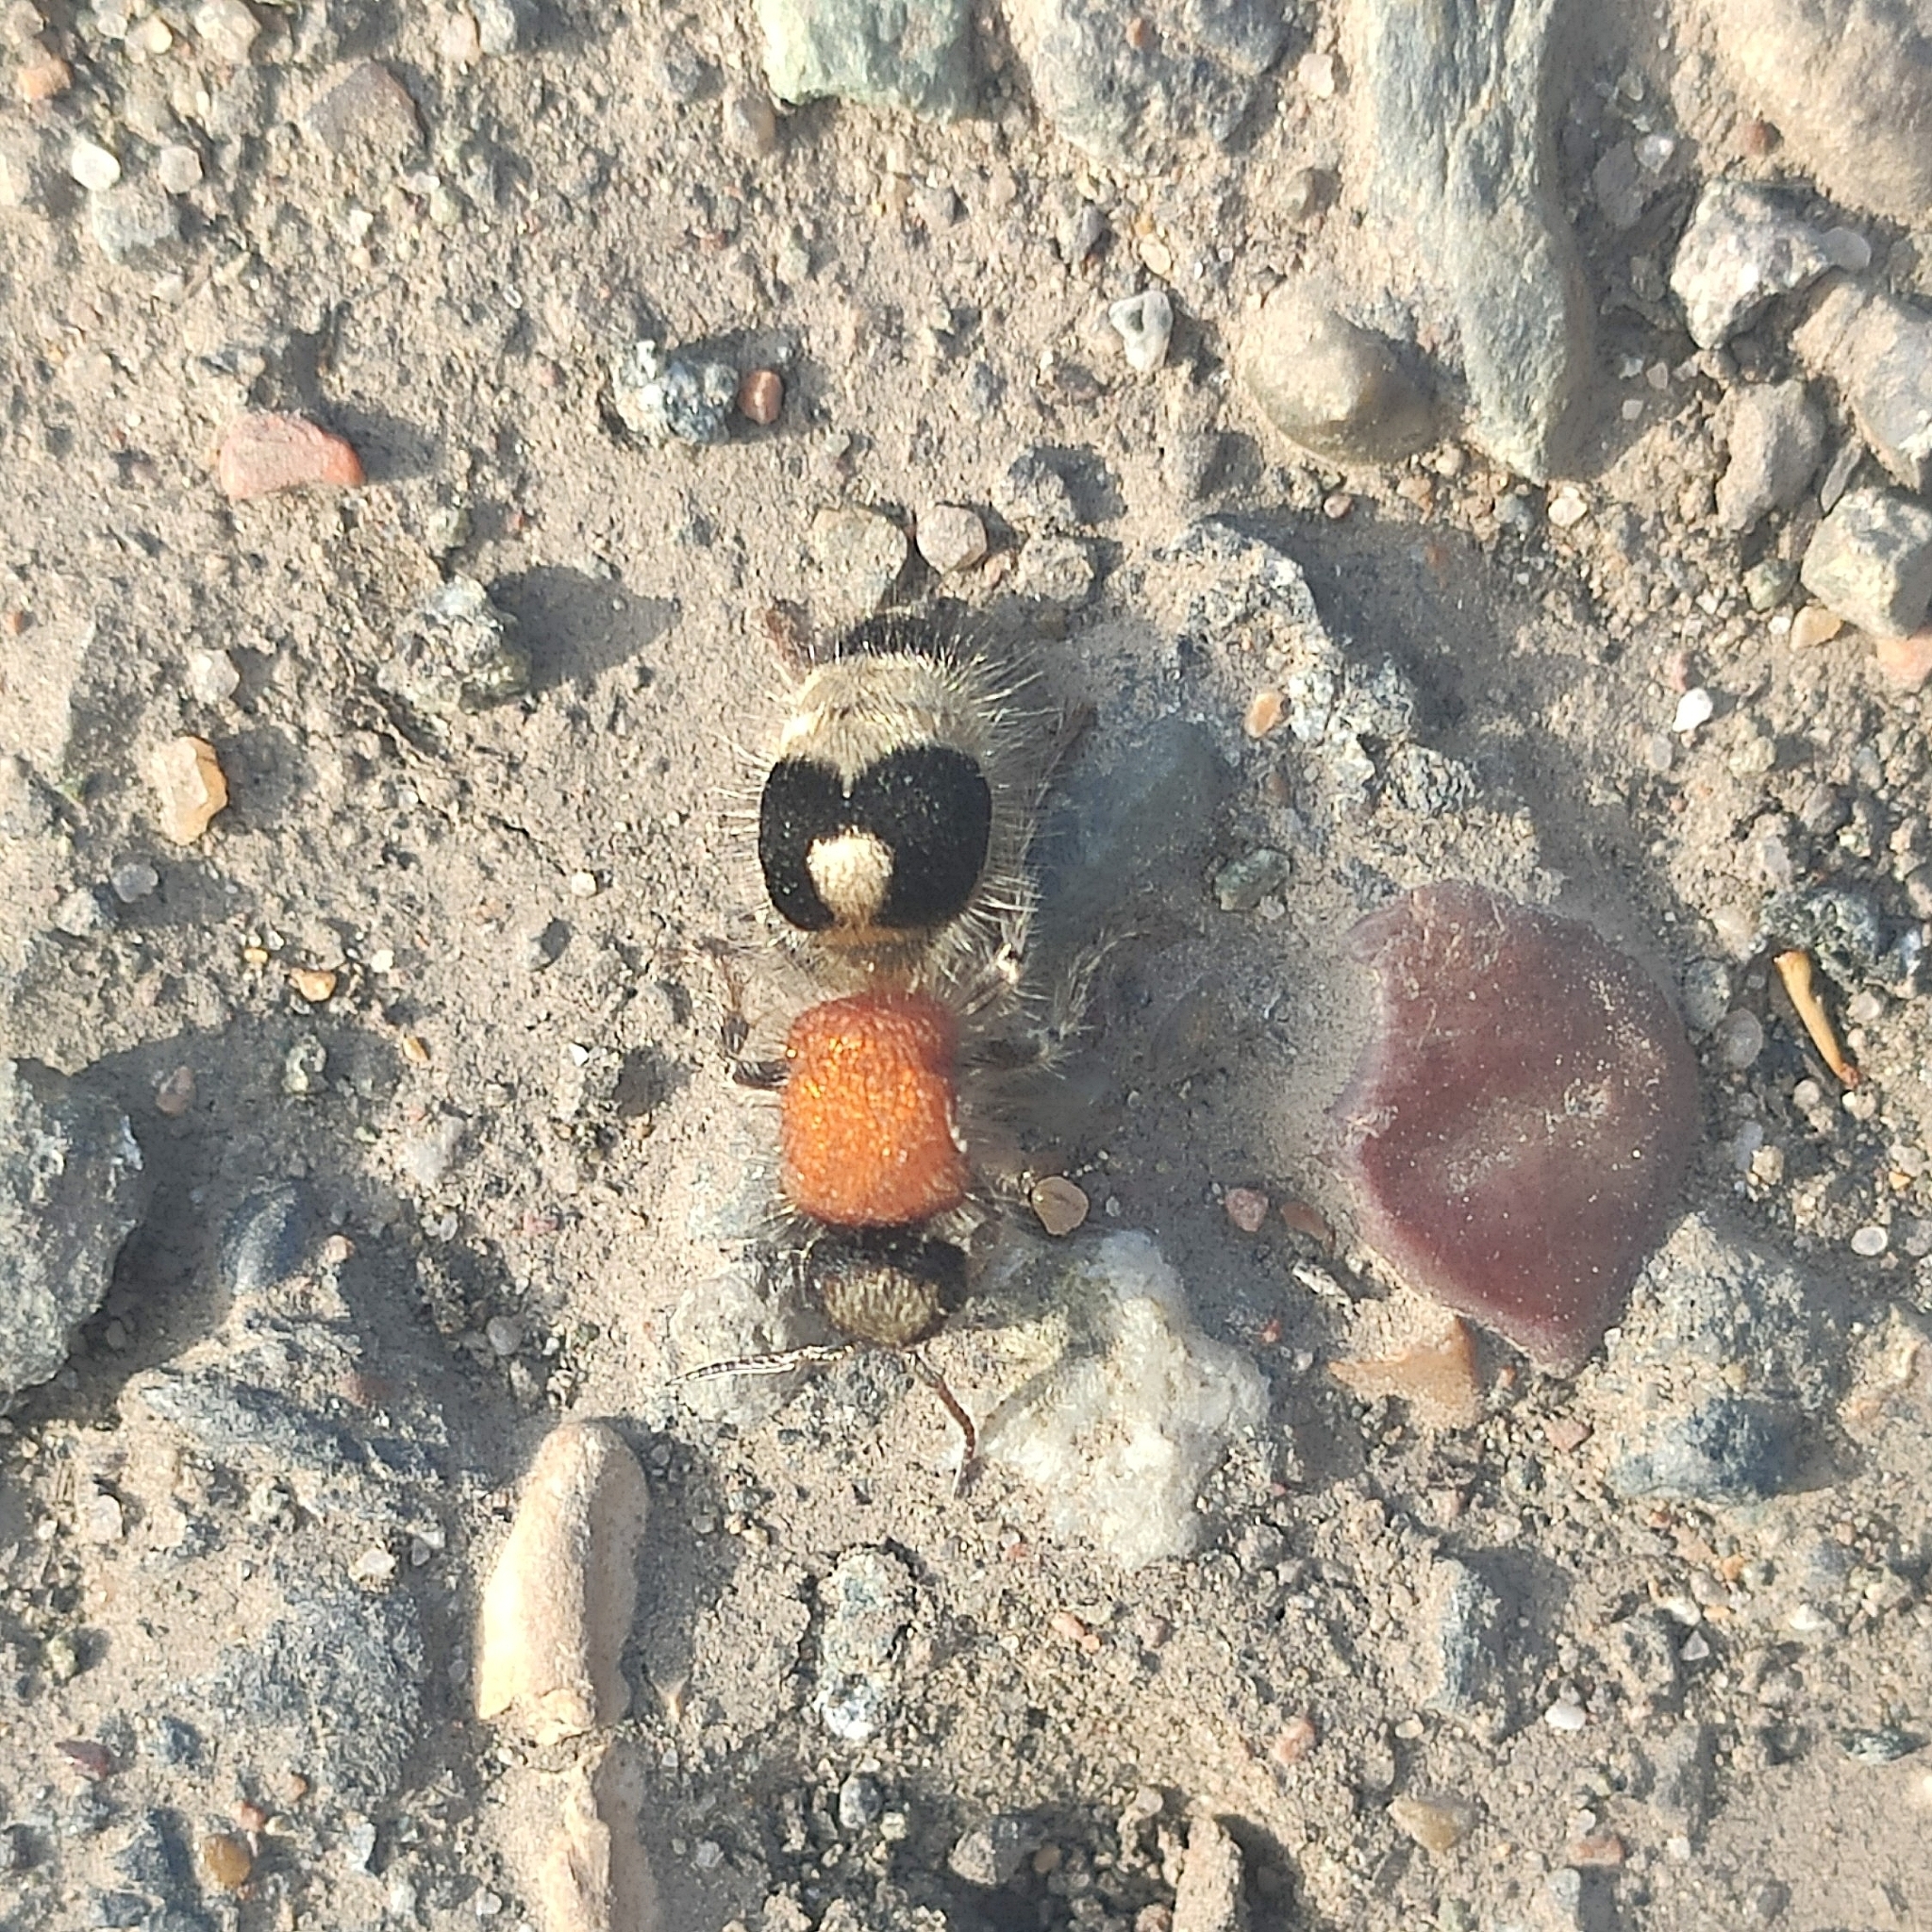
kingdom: Animalia
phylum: Arthropoda
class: Insecta
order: Hymenoptera
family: Mutillidae
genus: Nemka
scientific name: Nemka viduata
